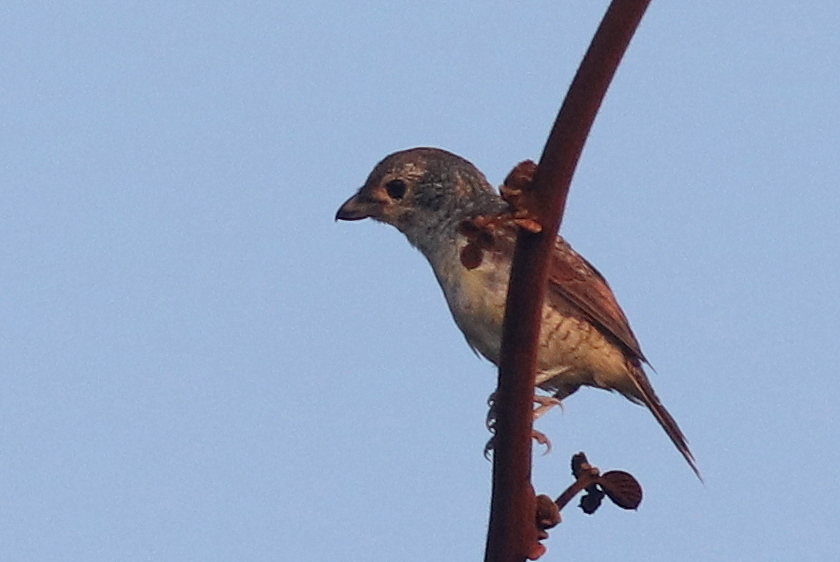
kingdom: Animalia
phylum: Chordata
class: Aves
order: Passeriformes
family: Laniidae
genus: Lanius
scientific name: Lanius tigrinus
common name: Tiger shrike
